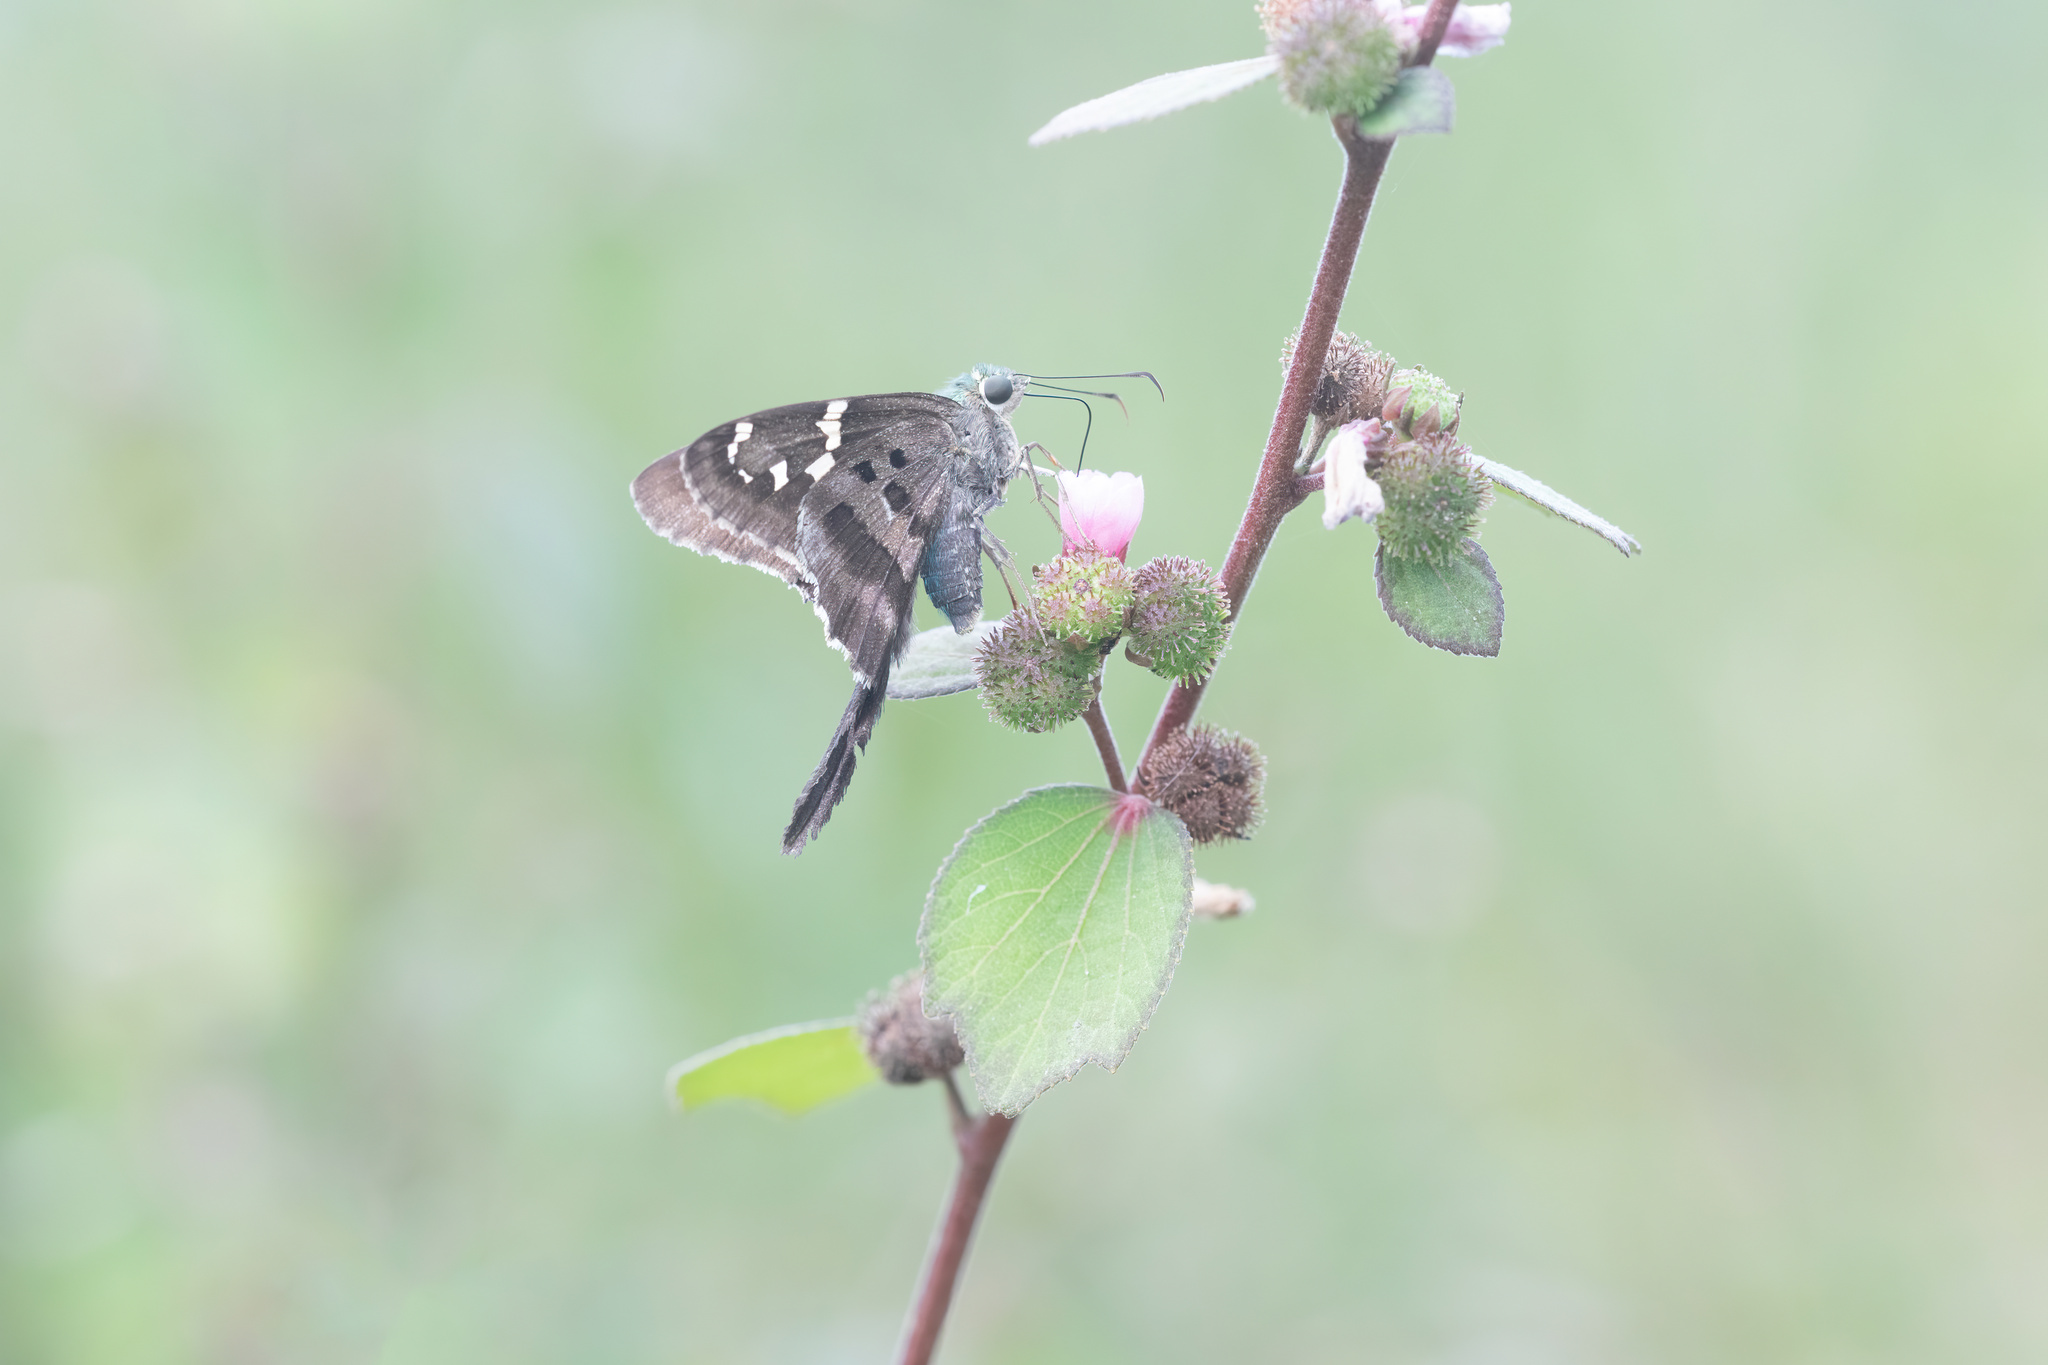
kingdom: Animalia
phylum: Arthropoda
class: Insecta
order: Lepidoptera
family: Hesperiidae
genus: Urbanus
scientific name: Urbanus proteus
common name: Long-tailed skipper
